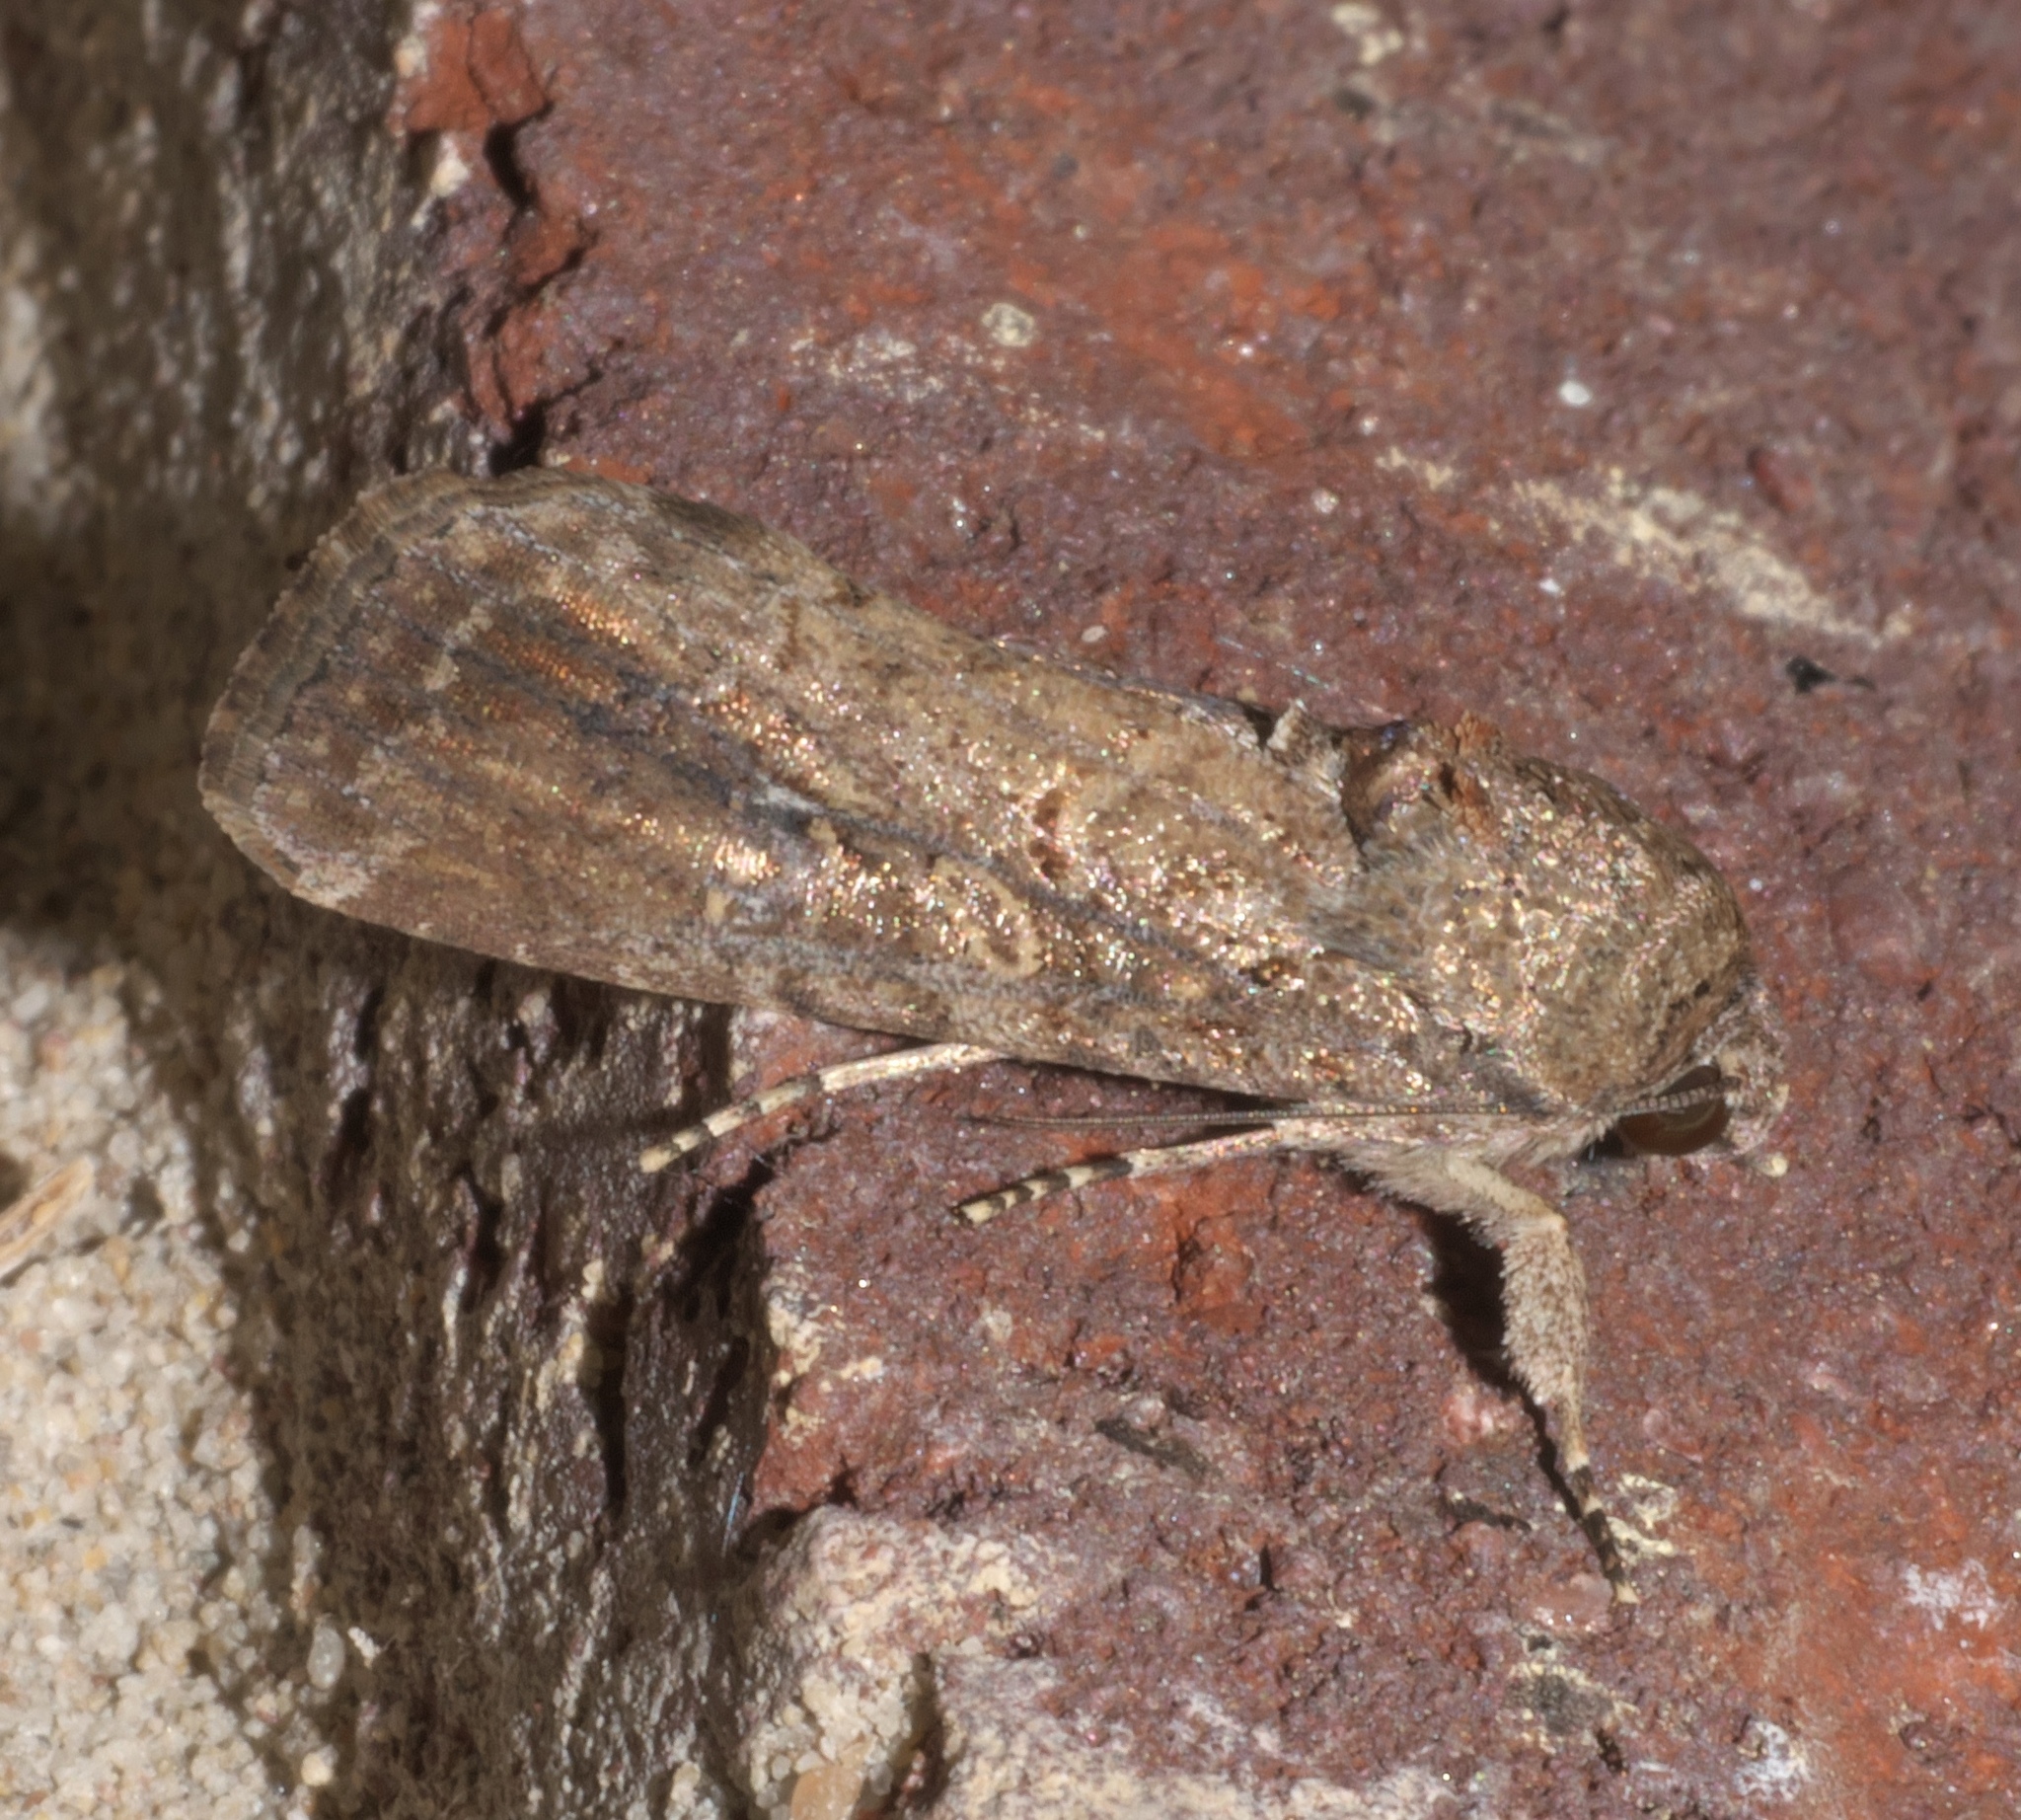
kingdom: Animalia
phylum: Arthropoda
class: Insecta
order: Lepidoptera
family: Noctuidae
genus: Spodoptera
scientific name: Spodoptera frugiperda
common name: Fall armyworm
